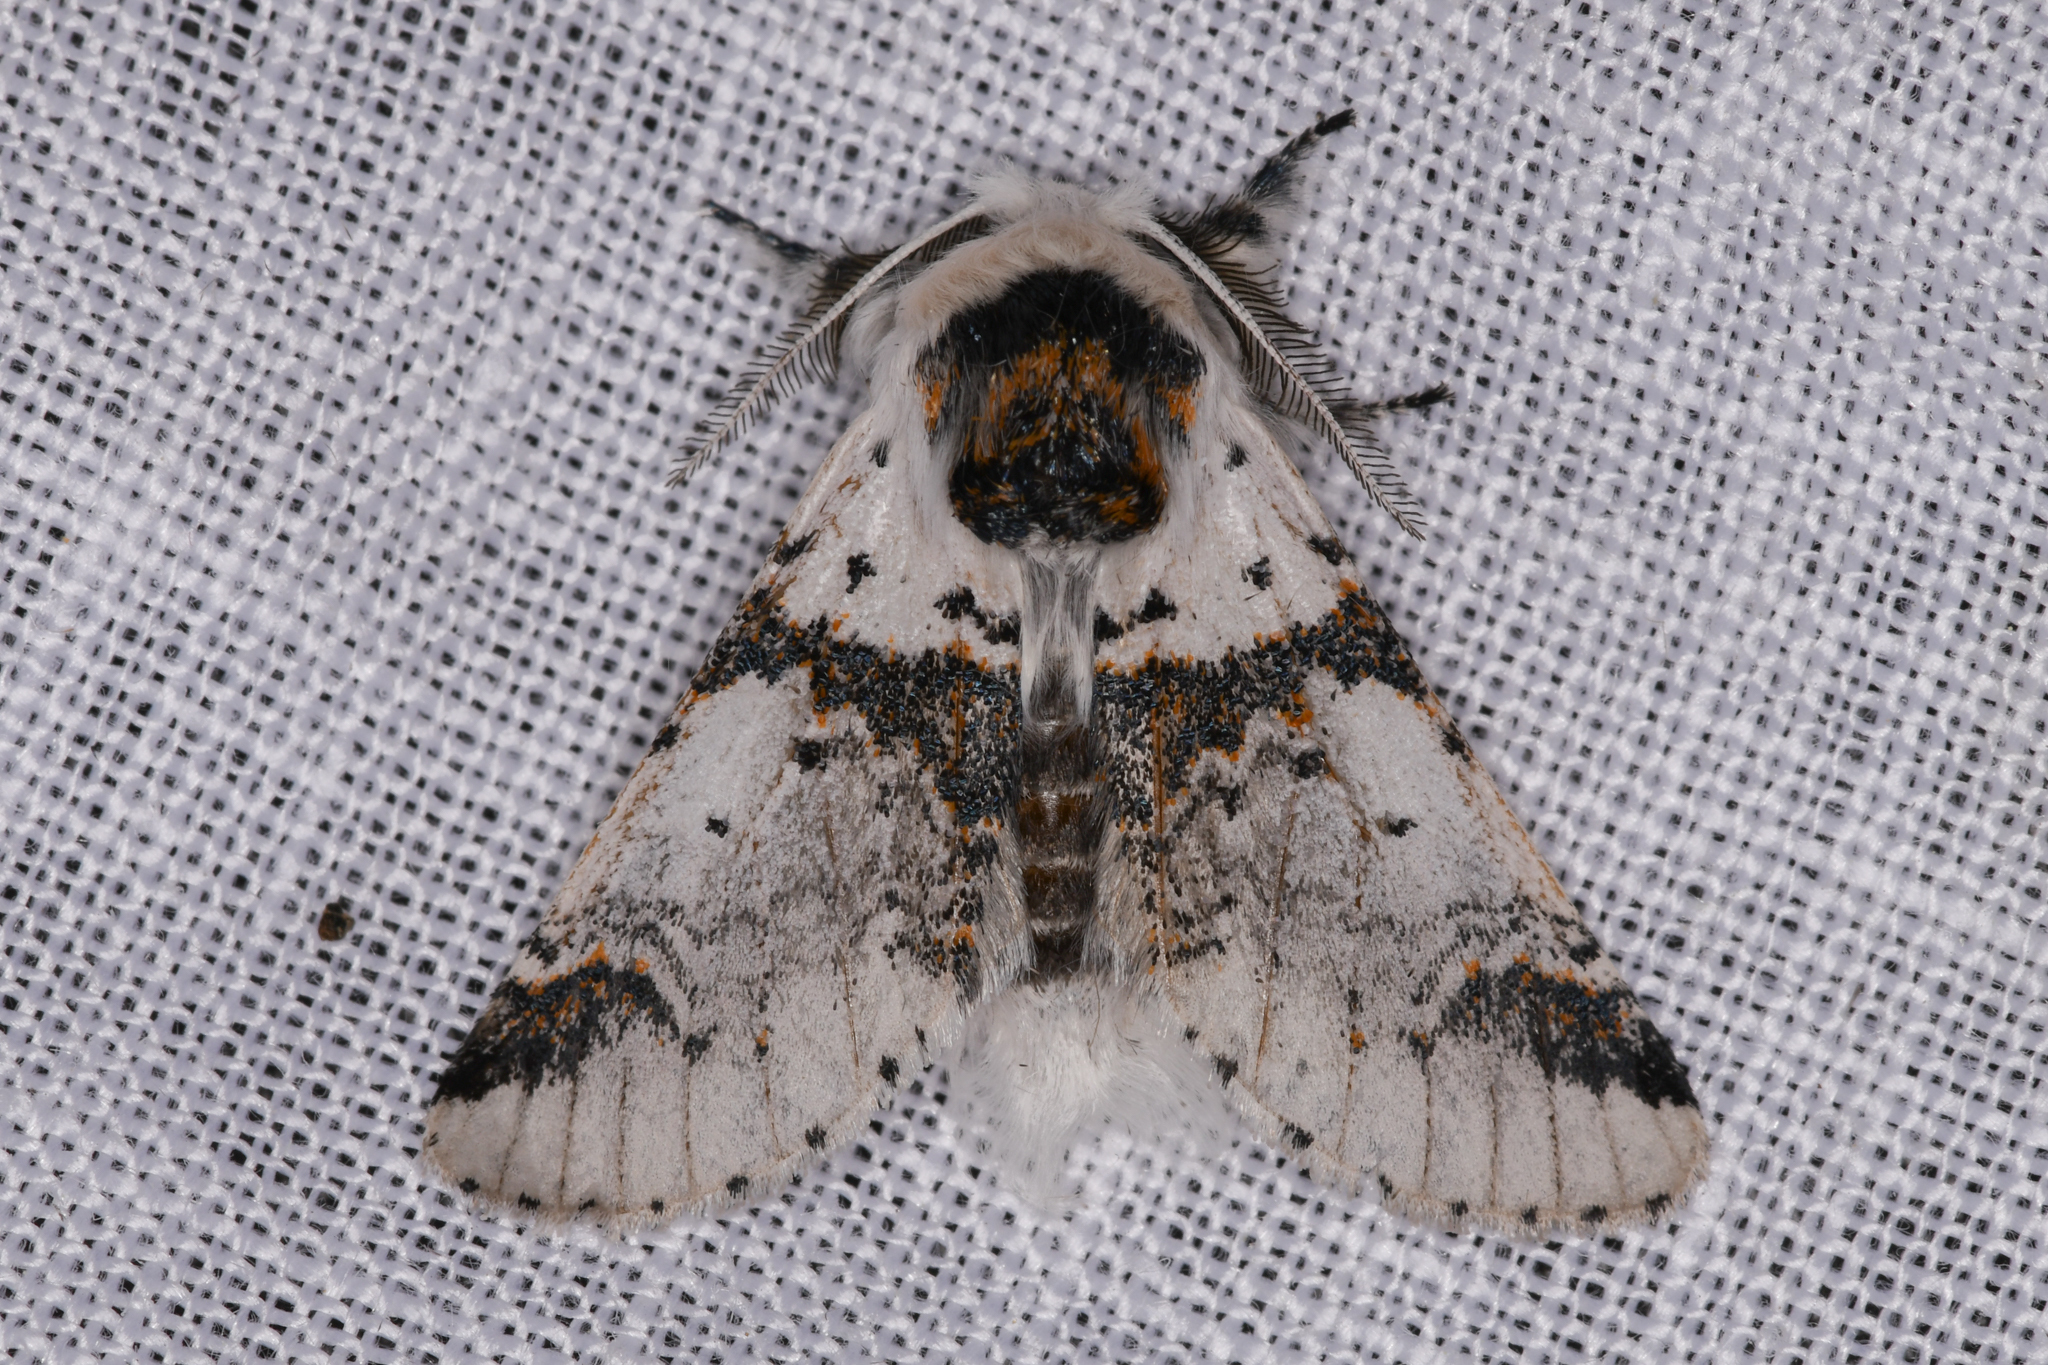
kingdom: Animalia
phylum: Arthropoda
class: Insecta
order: Lepidoptera
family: Notodontidae
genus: Furcula
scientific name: Furcula scolopendrina
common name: Zigzag furcula moth
